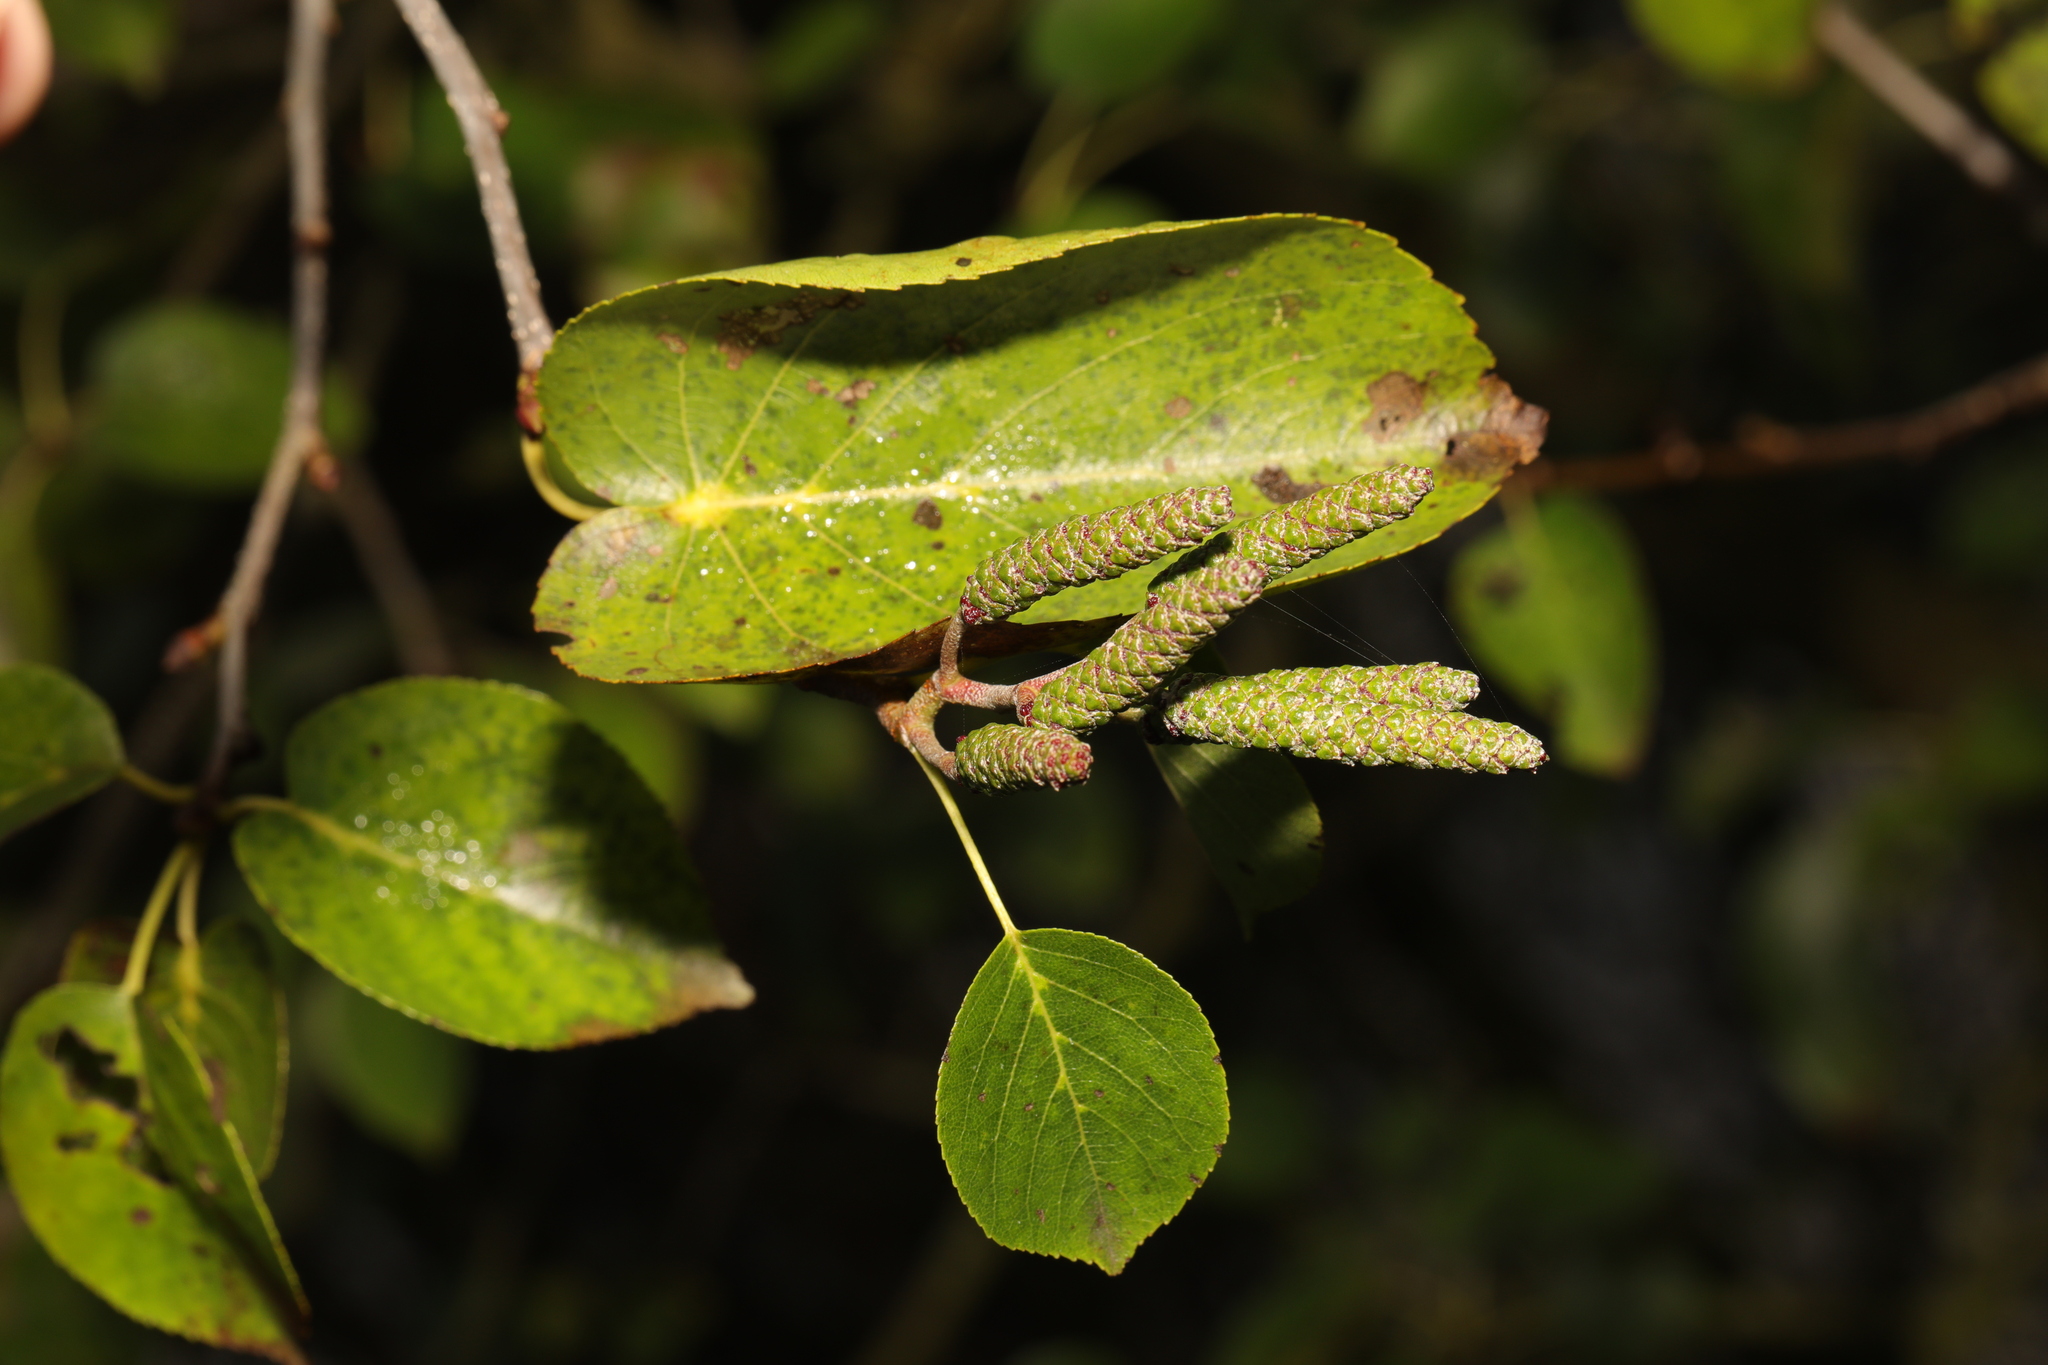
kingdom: Plantae
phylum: Tracheophyta
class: Magnoliopsida
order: Fagales
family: Betulaceae
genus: Alnus
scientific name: Alnus cordata
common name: Italian alder
